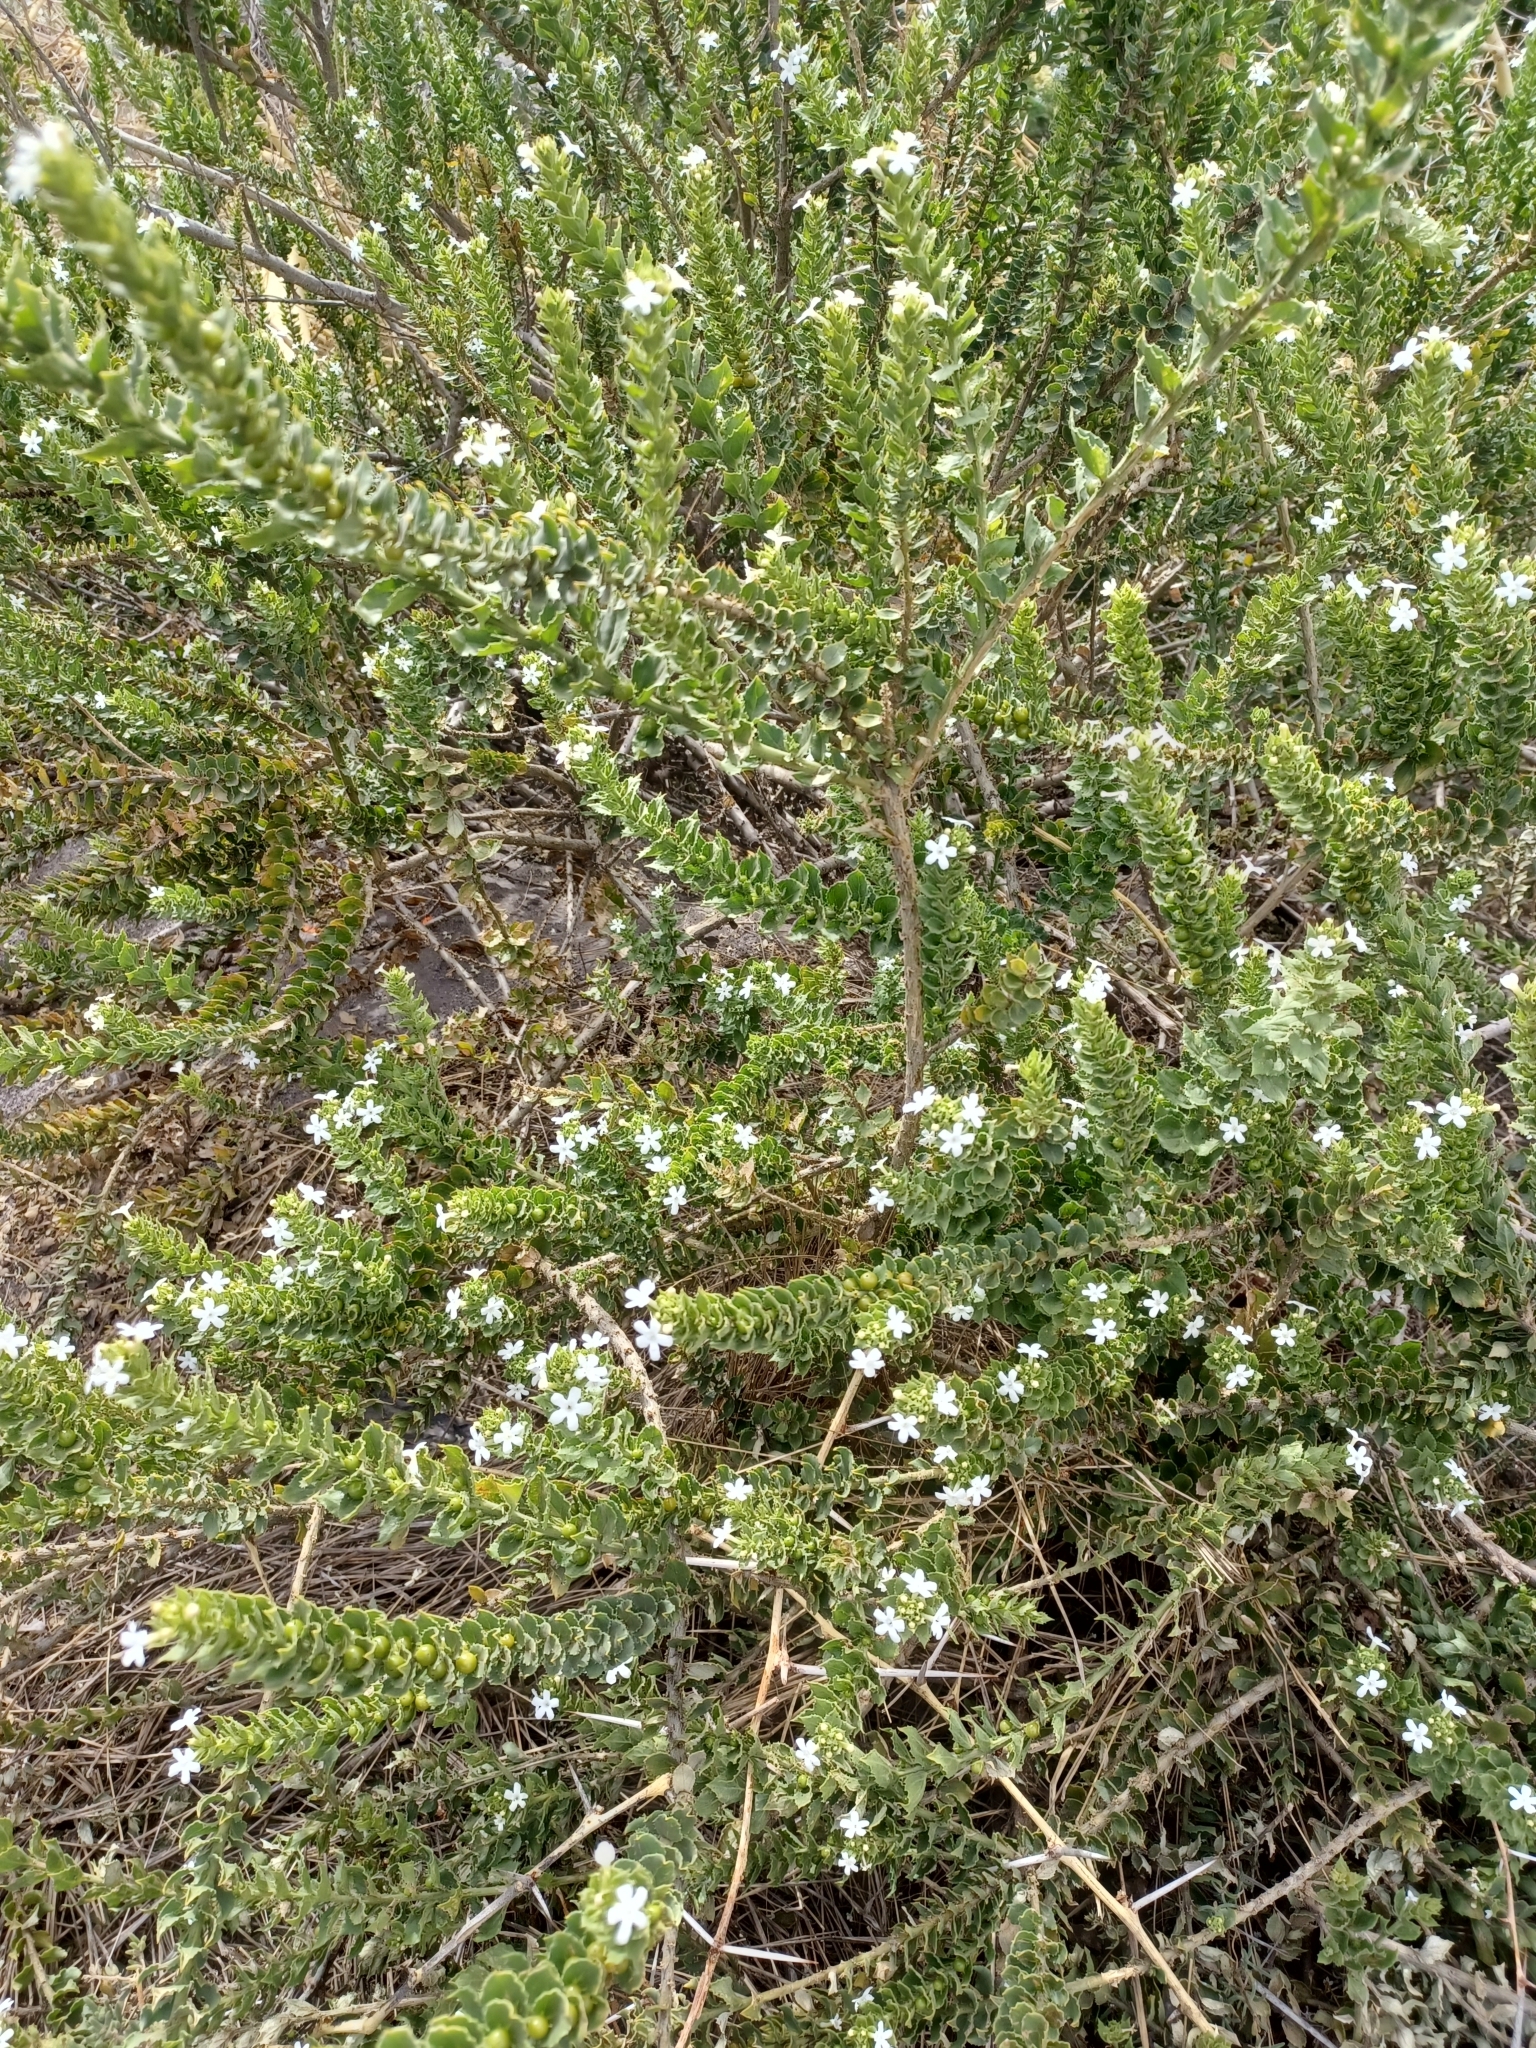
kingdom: Plantae
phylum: Tracheophyta
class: Magnoliopsida
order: Lamiales
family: Scrophulariaceae
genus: Oftia
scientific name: Oftia africana
